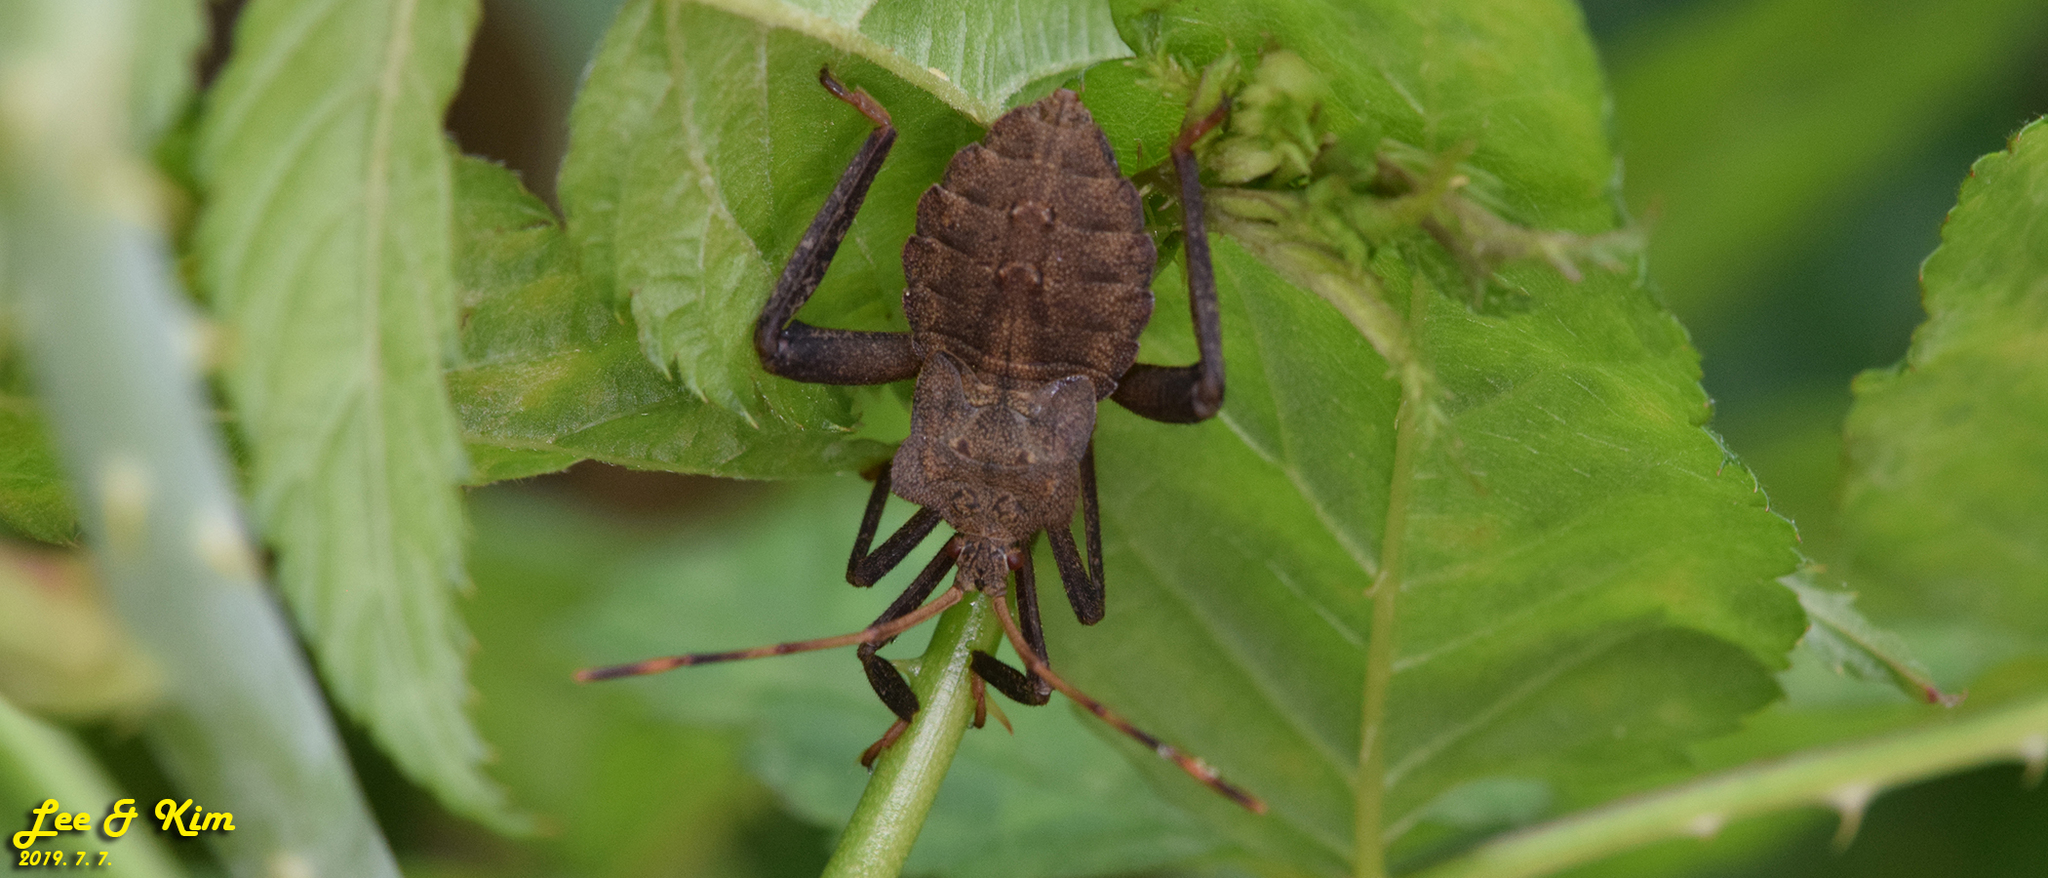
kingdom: Animalia
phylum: Arthropoda
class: Insecta
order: Hemiptera
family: Coreidae
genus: Molipteryx
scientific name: Molipteryx fuliginosa
